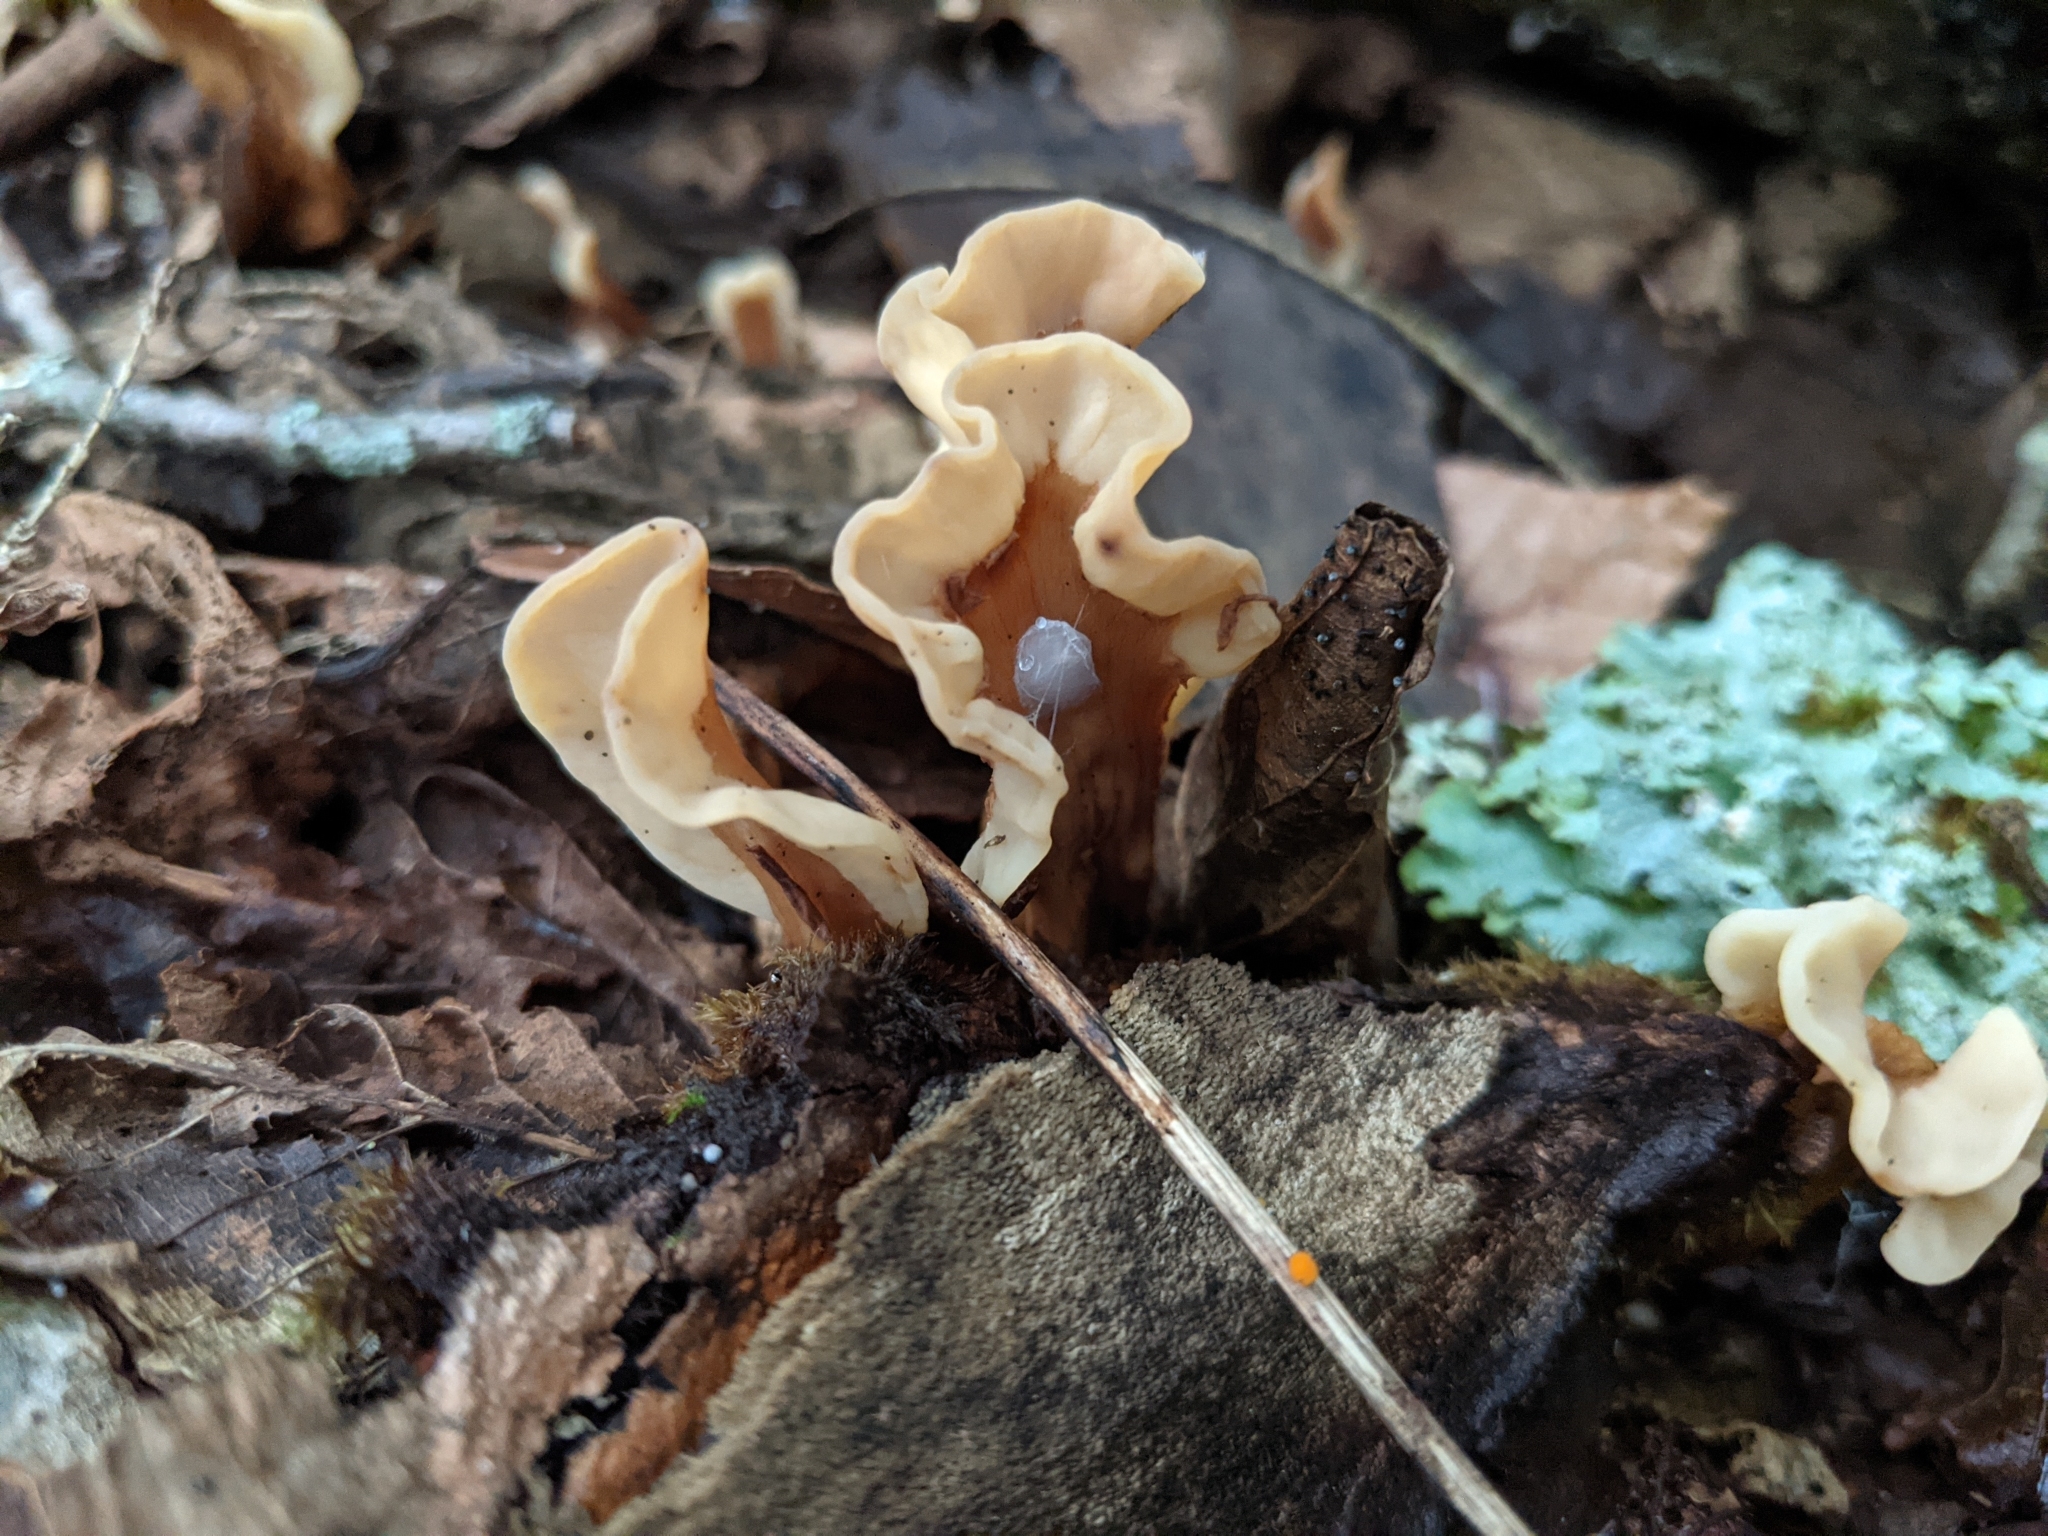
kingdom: Fungi
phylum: Ascomycota
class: Leotiomycetes
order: Rhytismatales
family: Cudoniaceae
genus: Spathulariopsis
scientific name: Spathulariopsis velutipes
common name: Velvet-foot fairy fan
